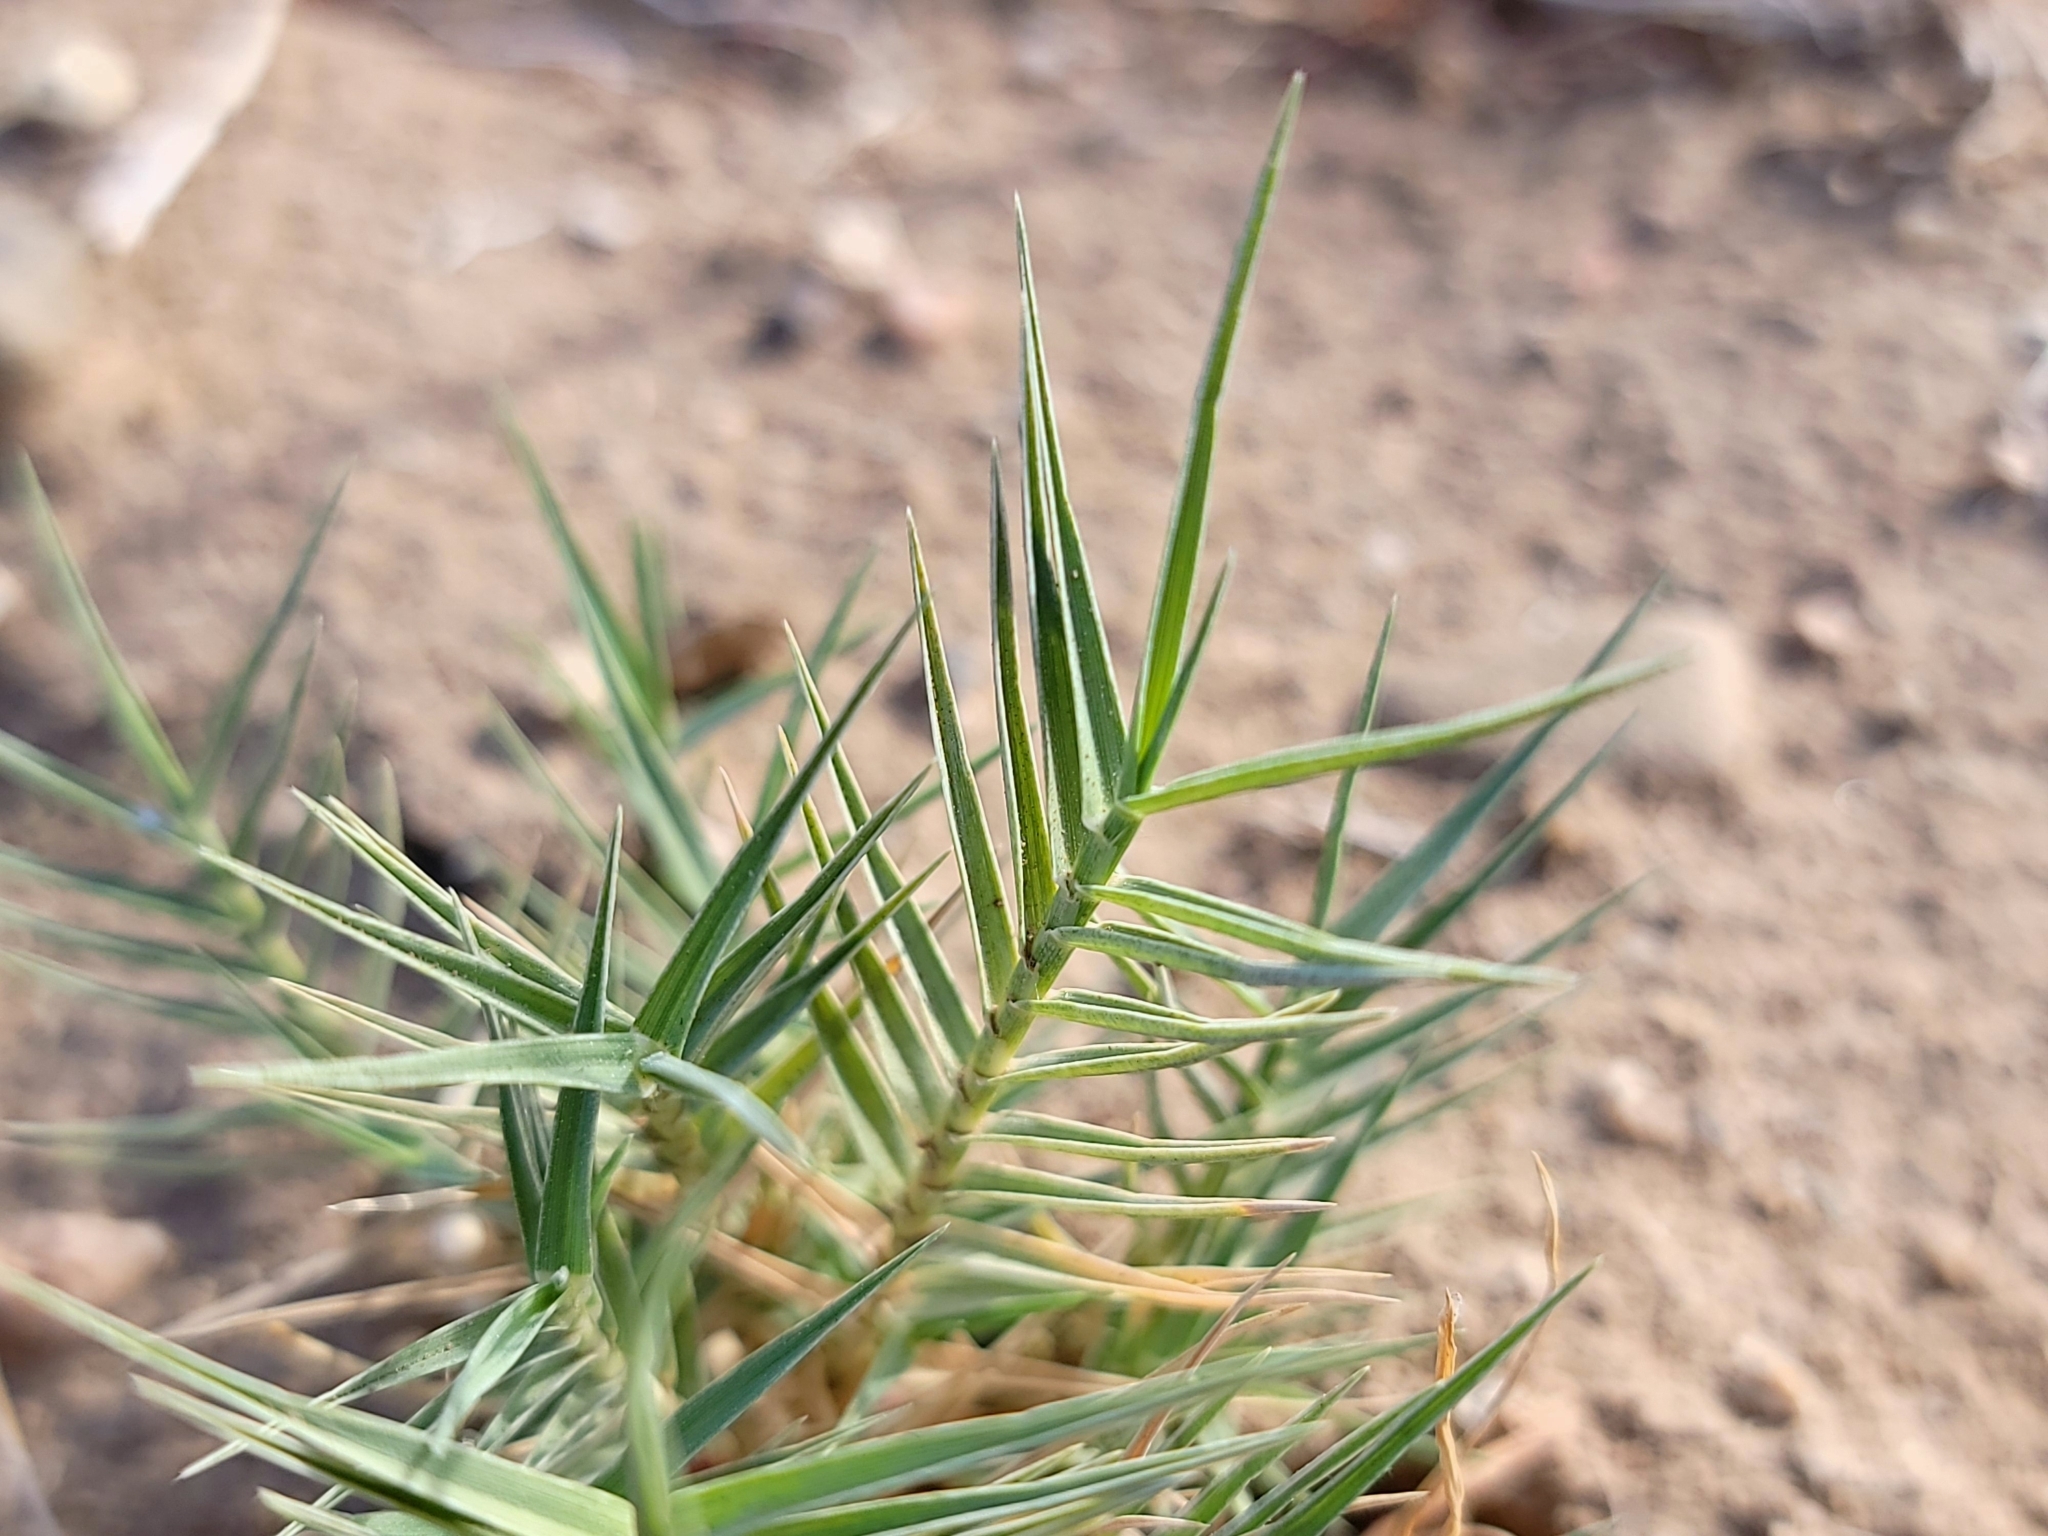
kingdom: Plantae
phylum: Tracheophyta
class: Liliopsida
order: Poales
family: Poaceae
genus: Distichlis
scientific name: Distichlis spicata
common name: Saltgrass
